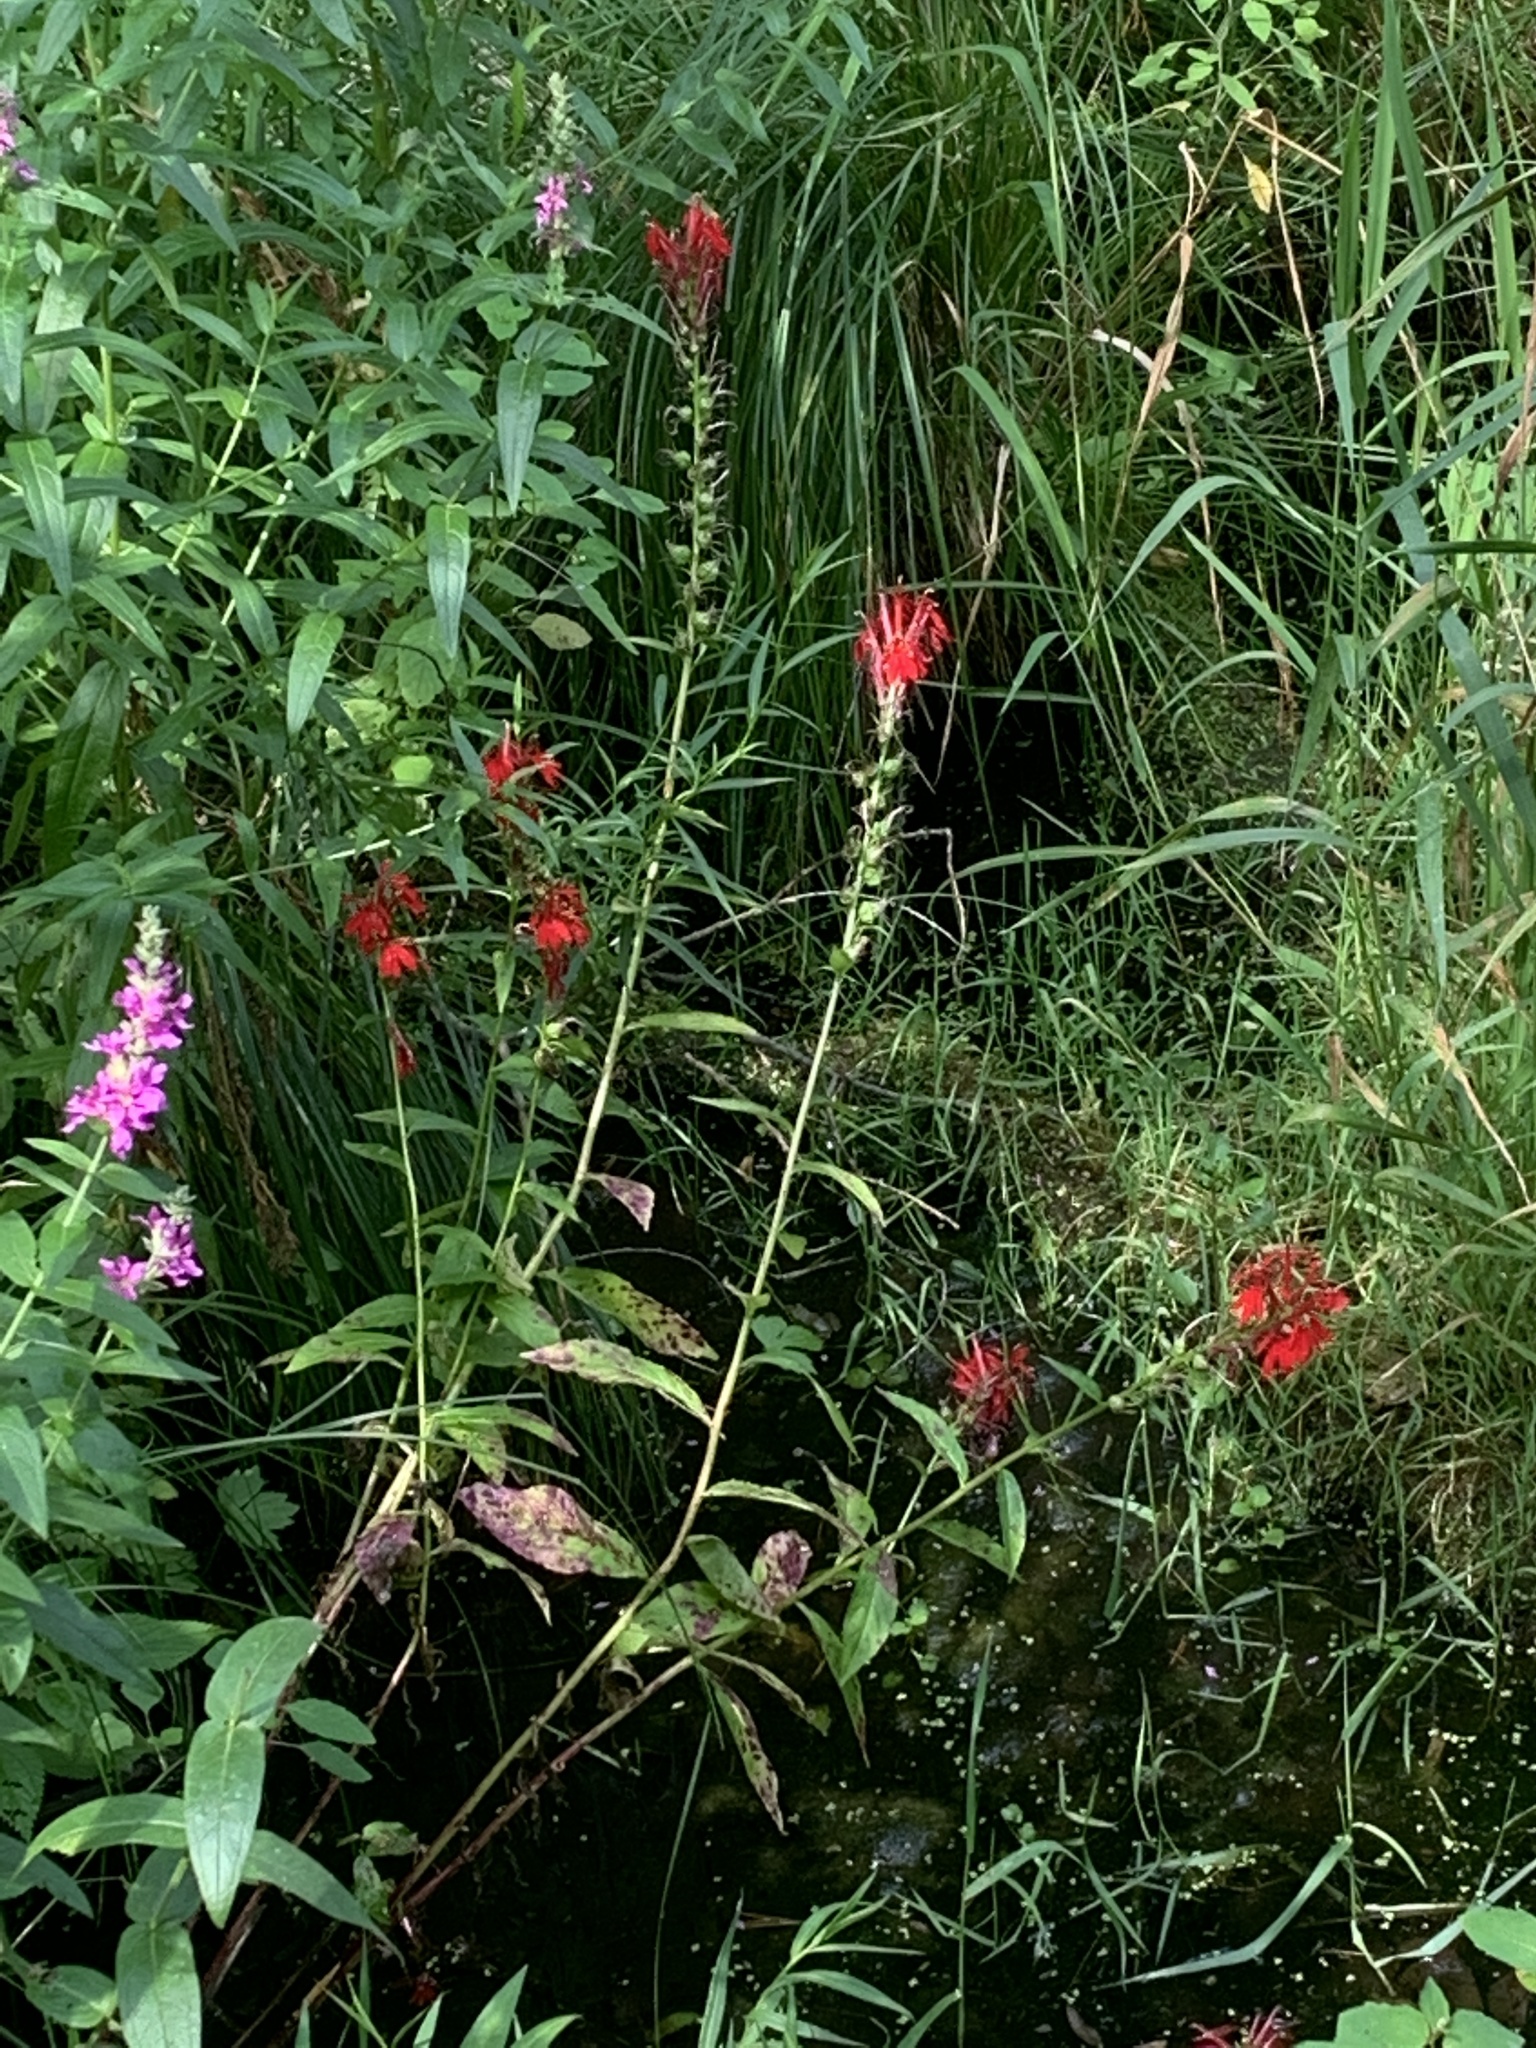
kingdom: Plantae
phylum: Tracheophyta
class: Magnoliopsida
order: Asterales
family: Campanulaceae
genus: Lobelia
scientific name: Lobelia cardinalis
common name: Cardinal flower
